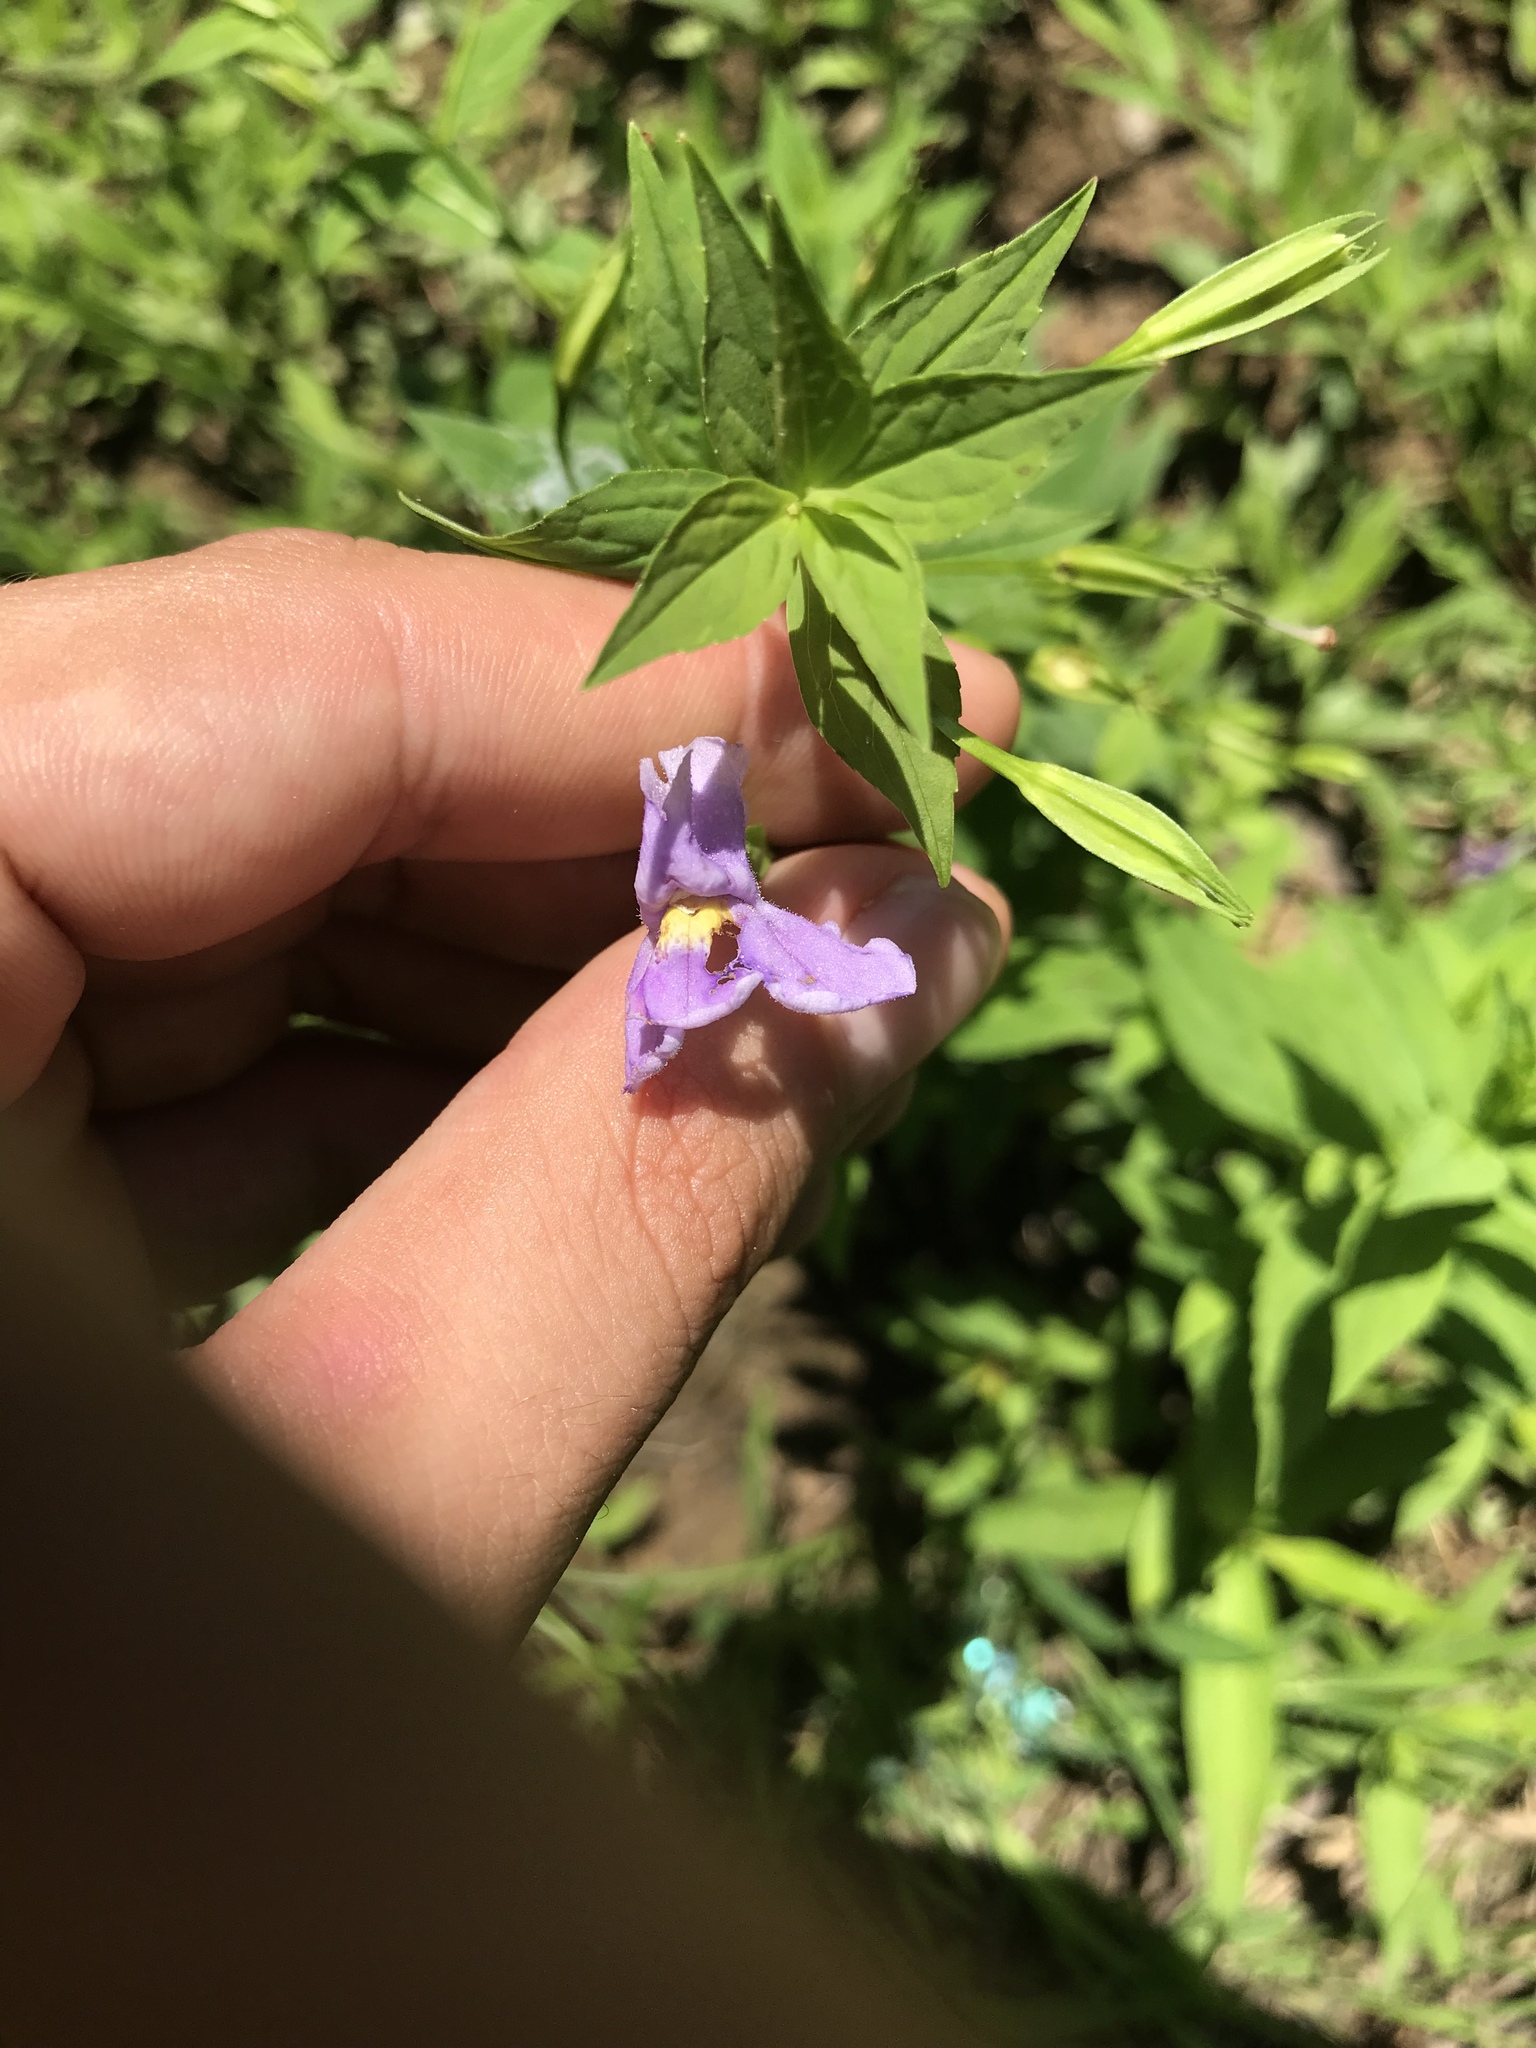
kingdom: Plantae
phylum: Tracheophyta
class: Magnoliopsida
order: Lamiales
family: Phrymaceae
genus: Mimulus
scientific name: Mimulus ringens
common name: Allegheny monkeyflower
